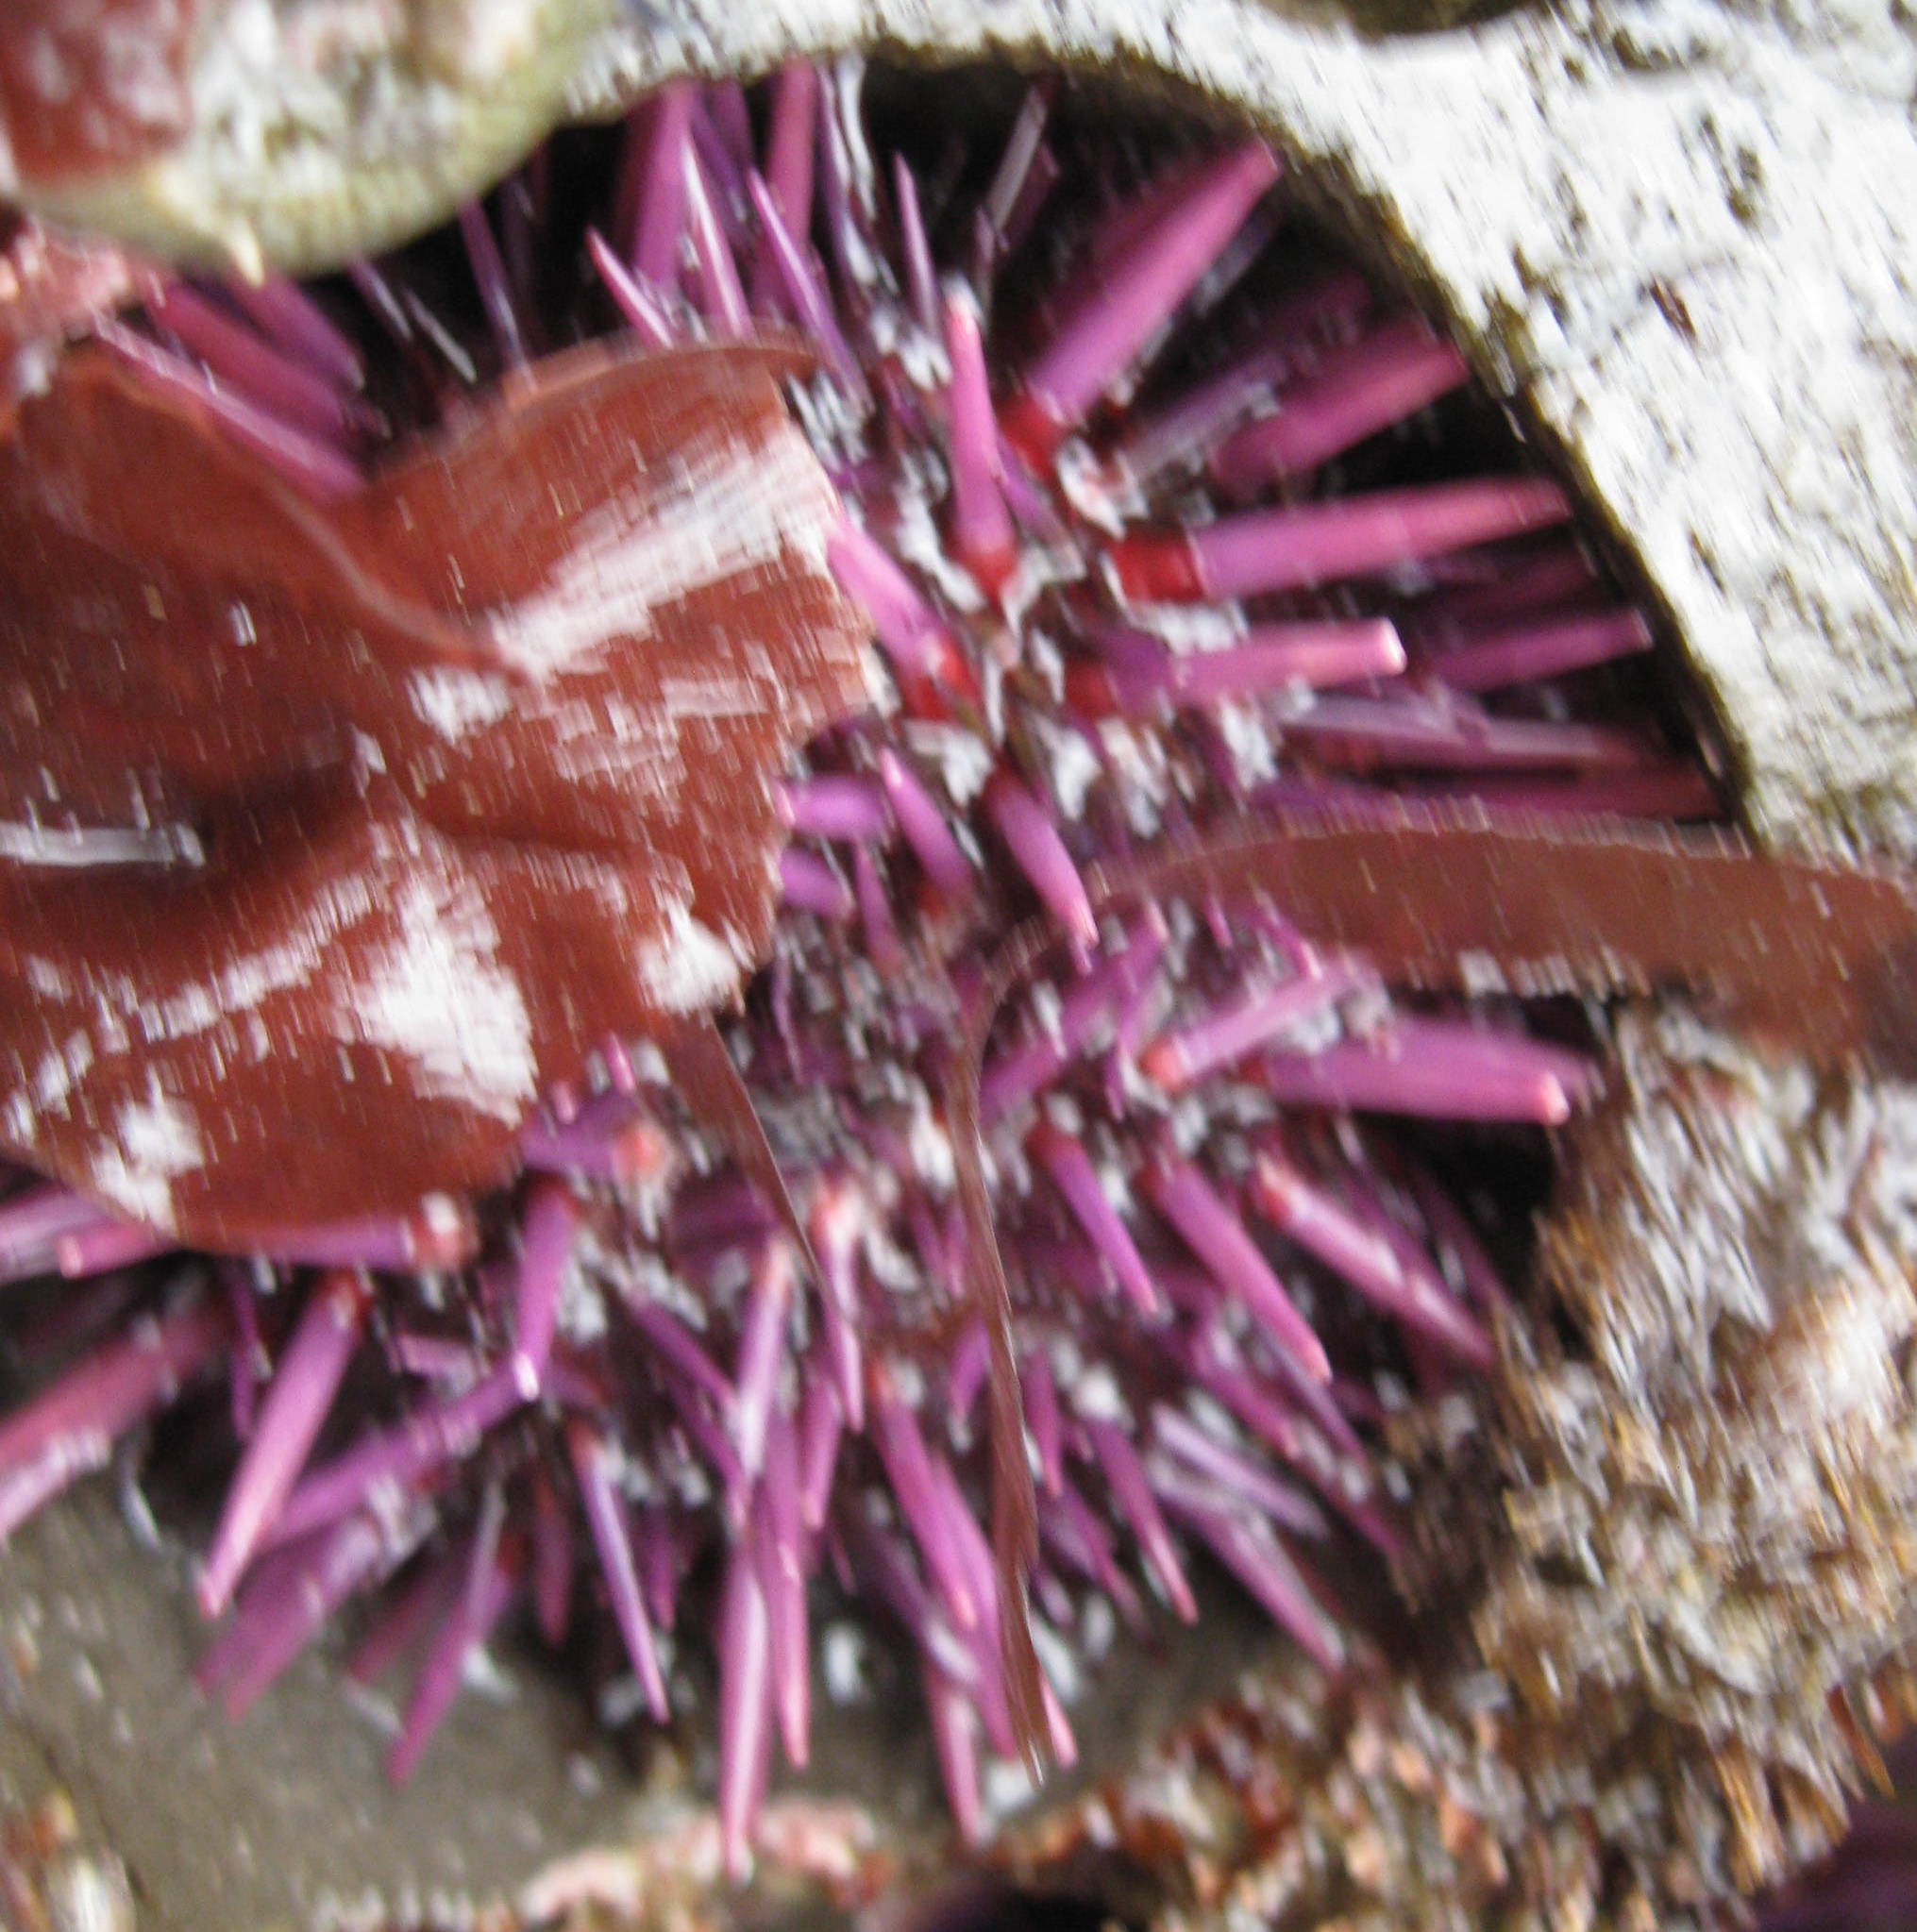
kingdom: Animalia
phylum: Echinodermata
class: Echinoidea
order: Camarodonta
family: Strongylocentrotidae
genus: Strongylocentrotus
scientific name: Strongylocentrotus purpuratus
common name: Purple sea urchin
